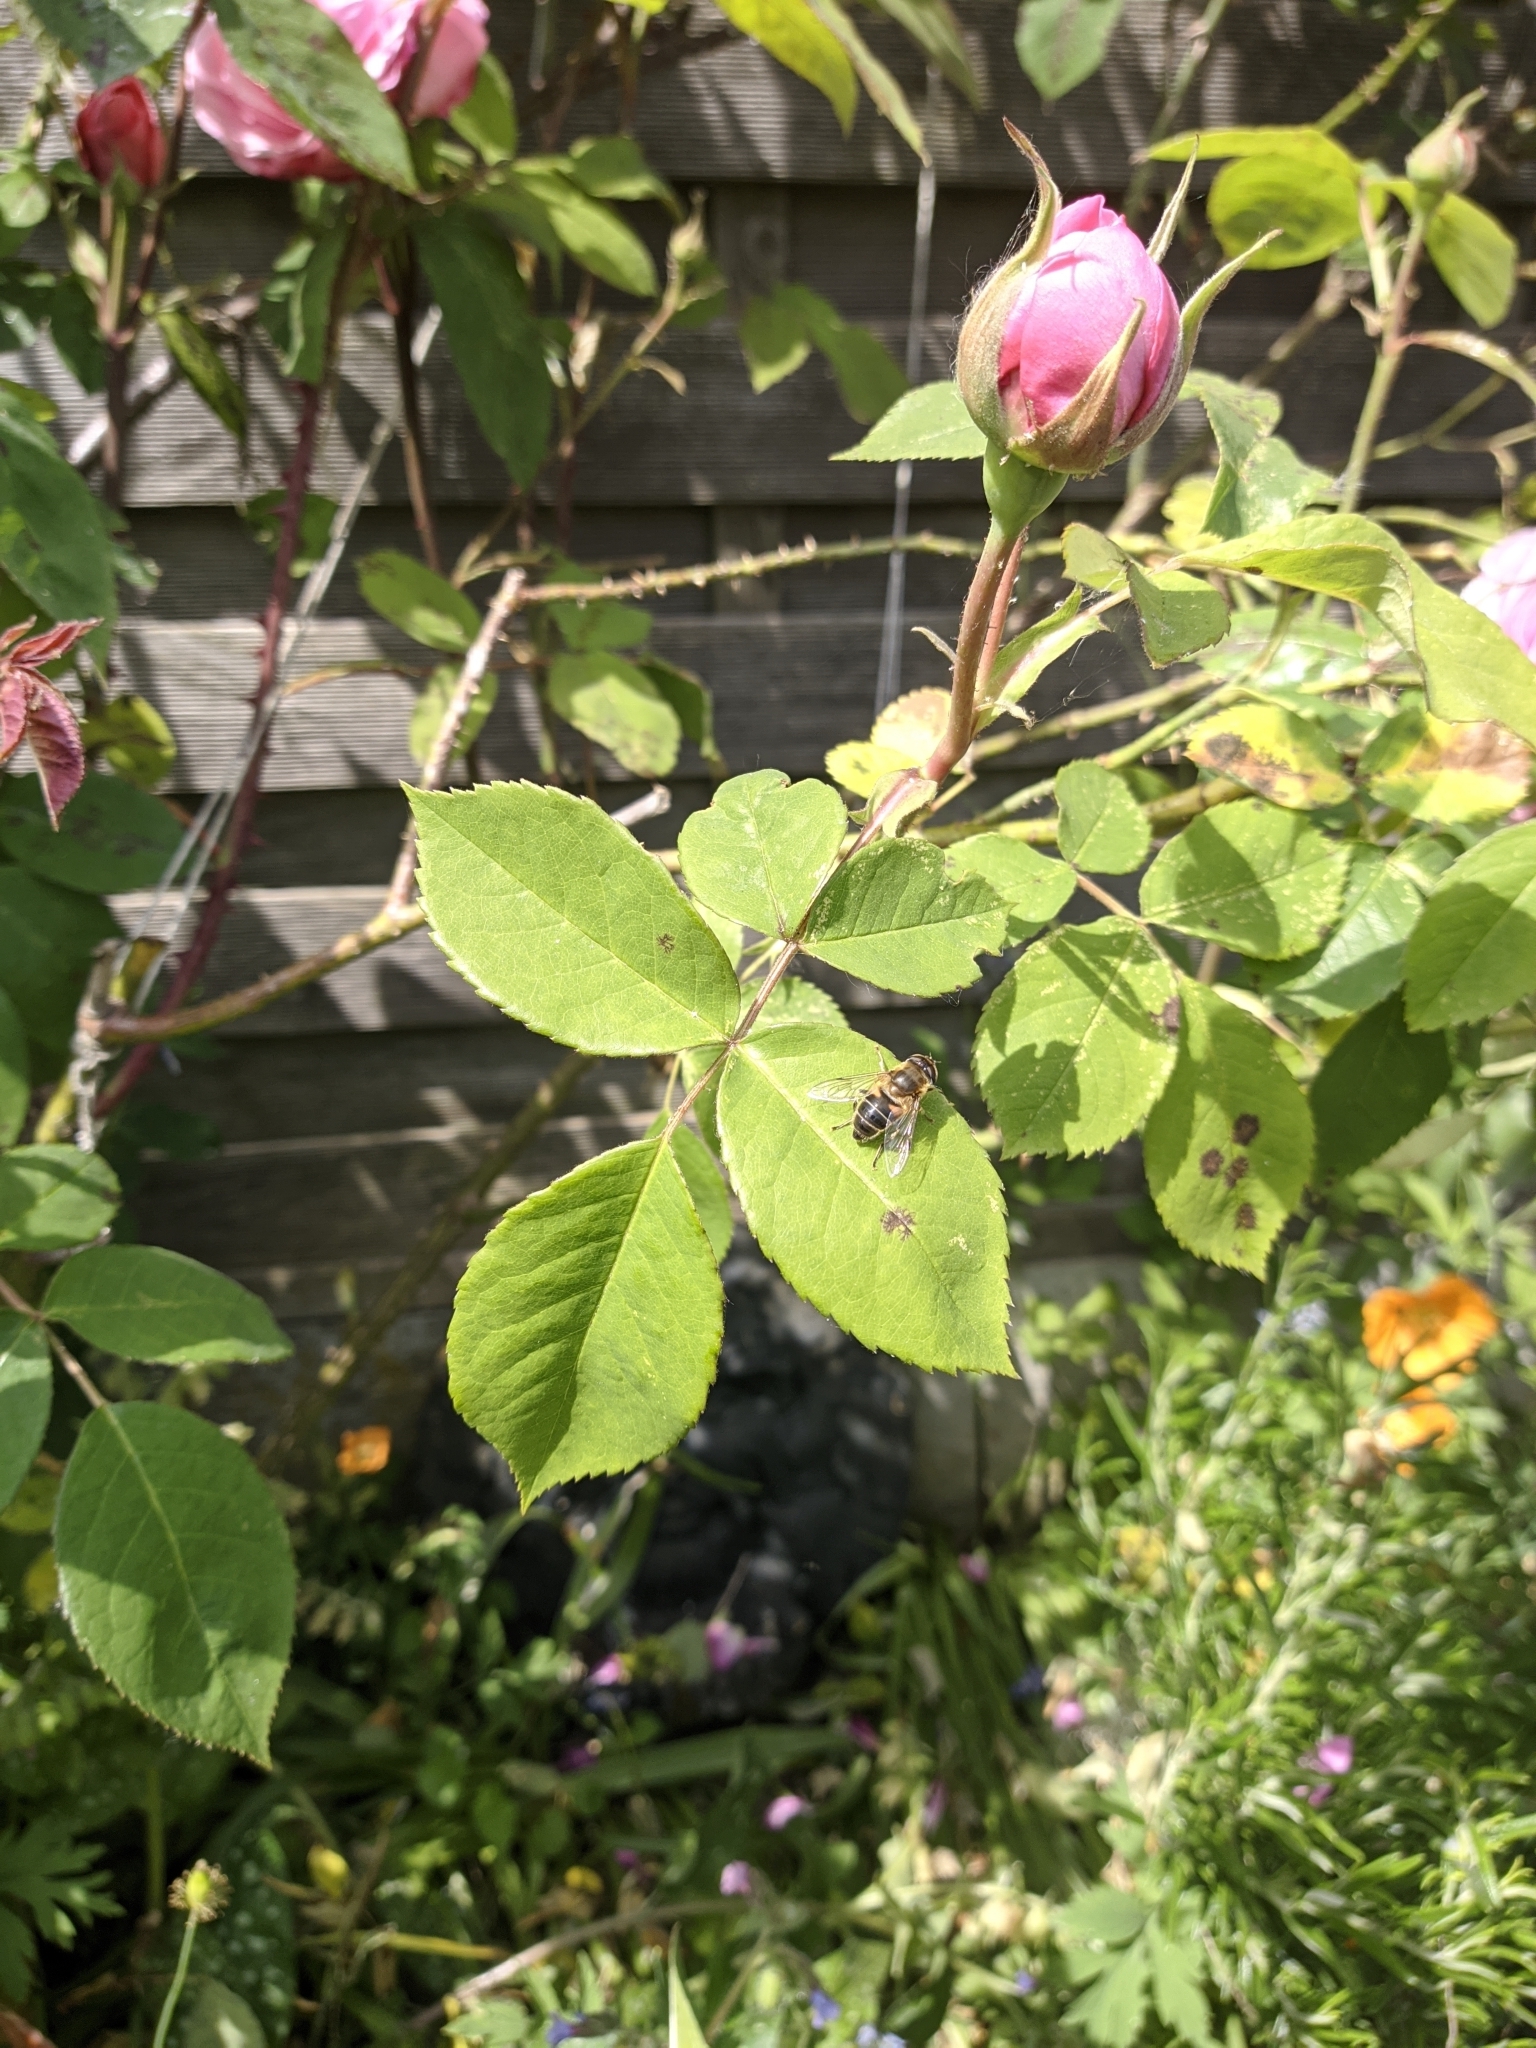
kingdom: Animalia
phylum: Arthropoda
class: Insecta
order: Diptera
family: Syrphidae
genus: Eristalis
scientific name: Eristalis pertinax
